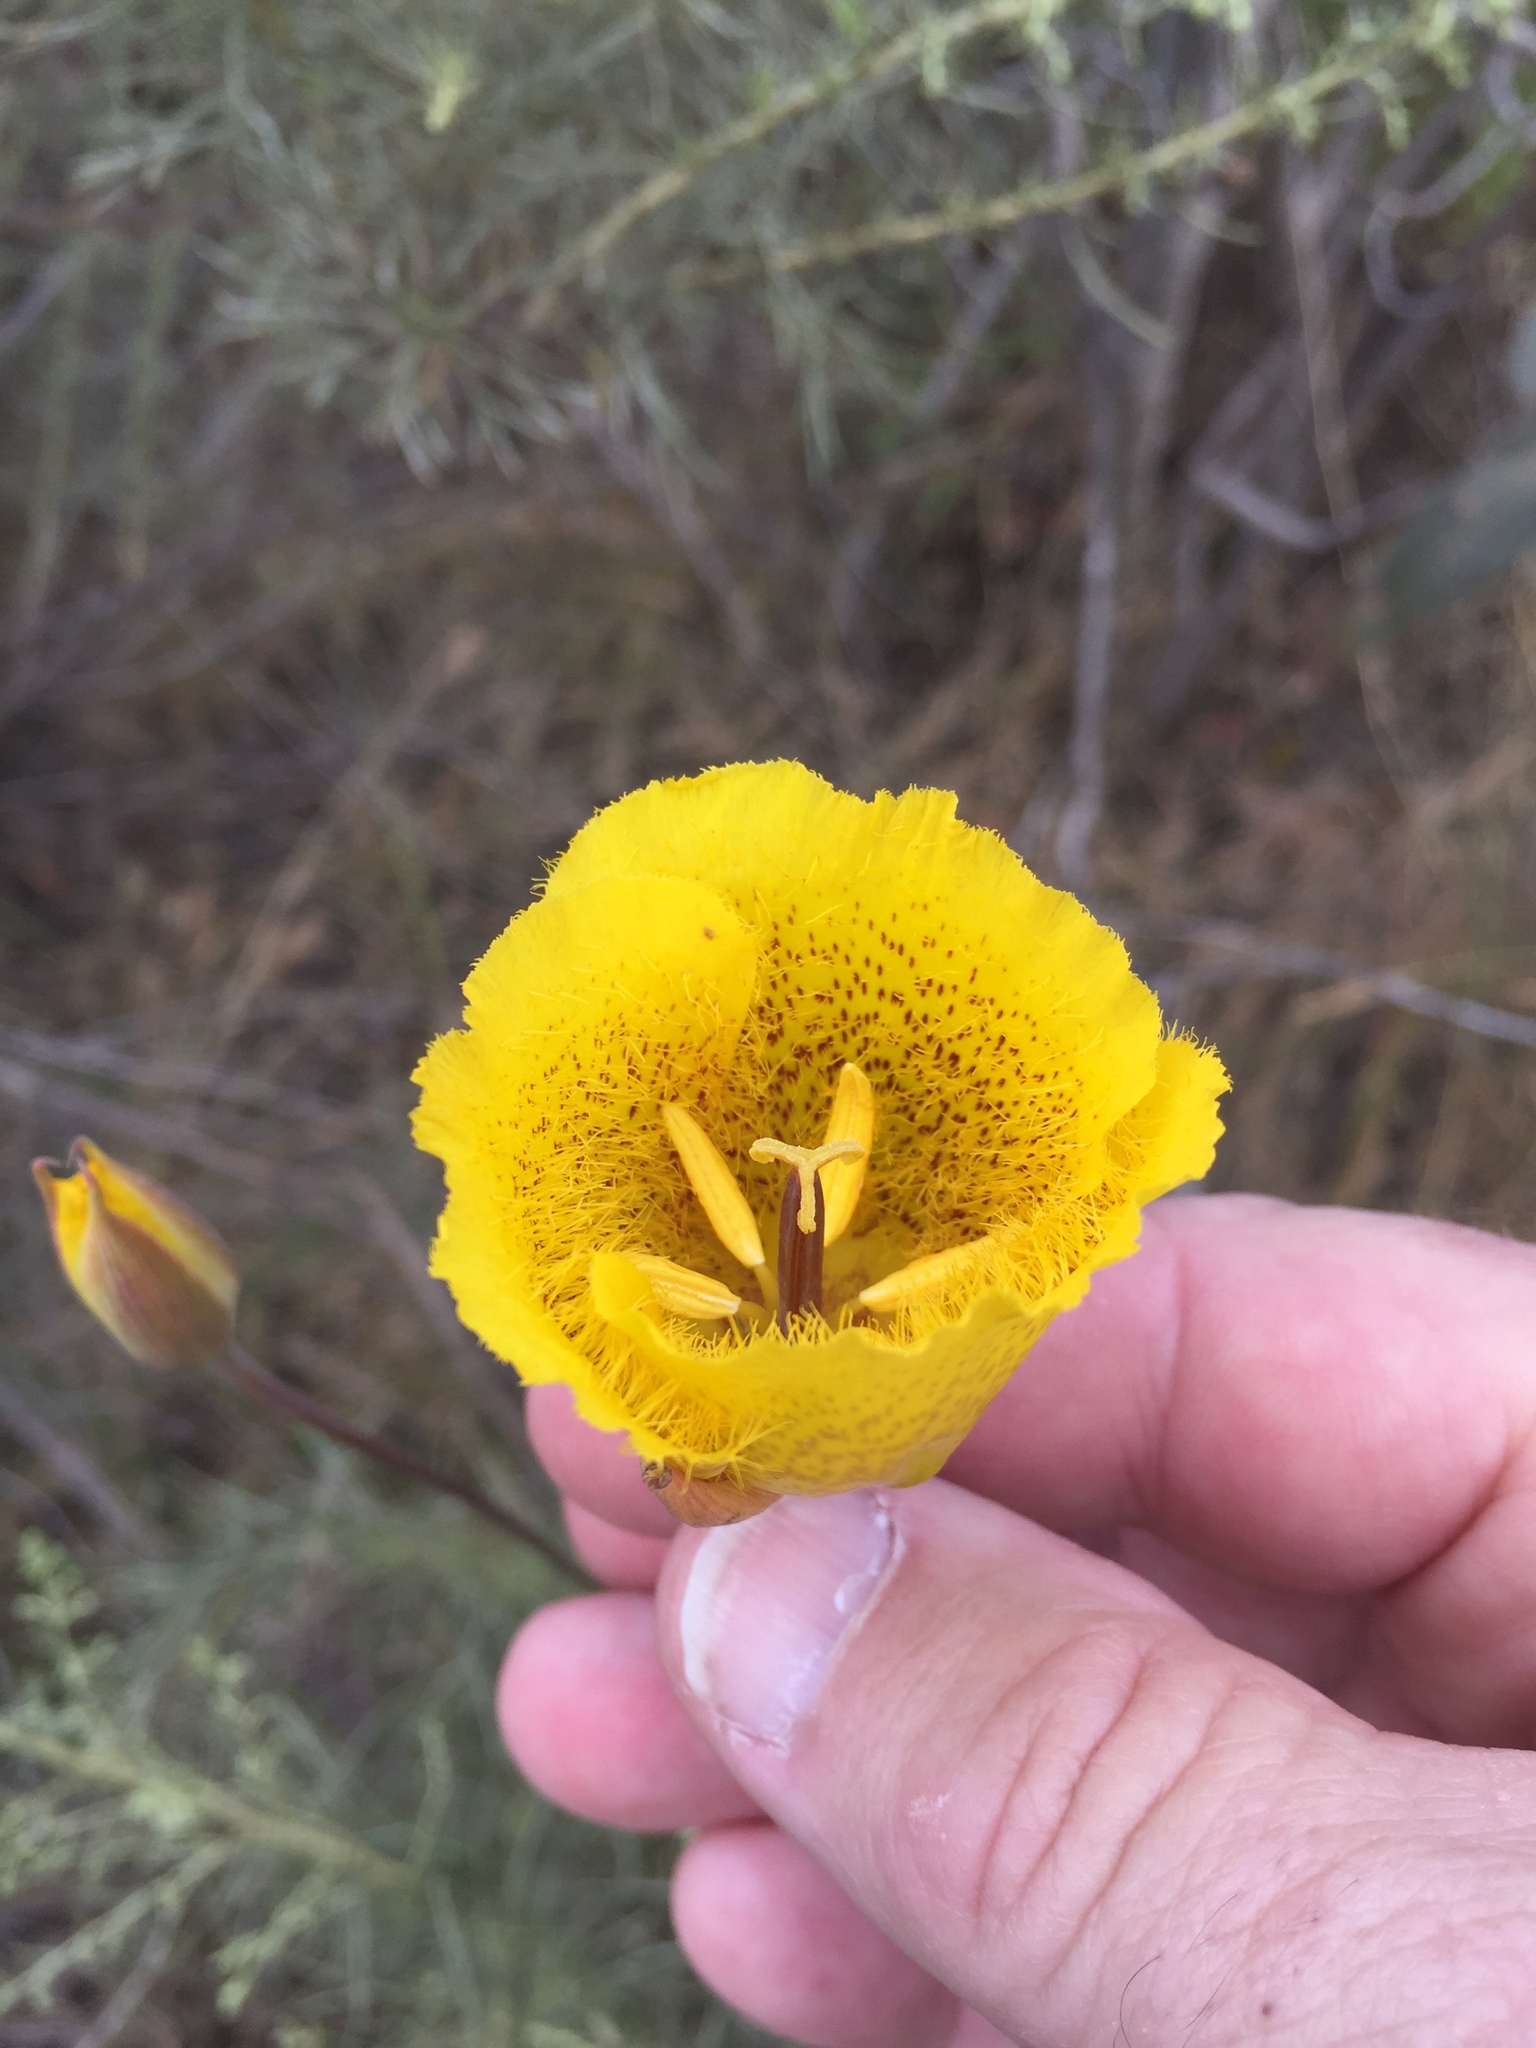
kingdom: Plantae
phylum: Tracheophyta
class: Liliopsida
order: Liliales
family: Liliaceae
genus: Calochortus
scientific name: Calochortus weedii
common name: Weed's mariposa-lily
